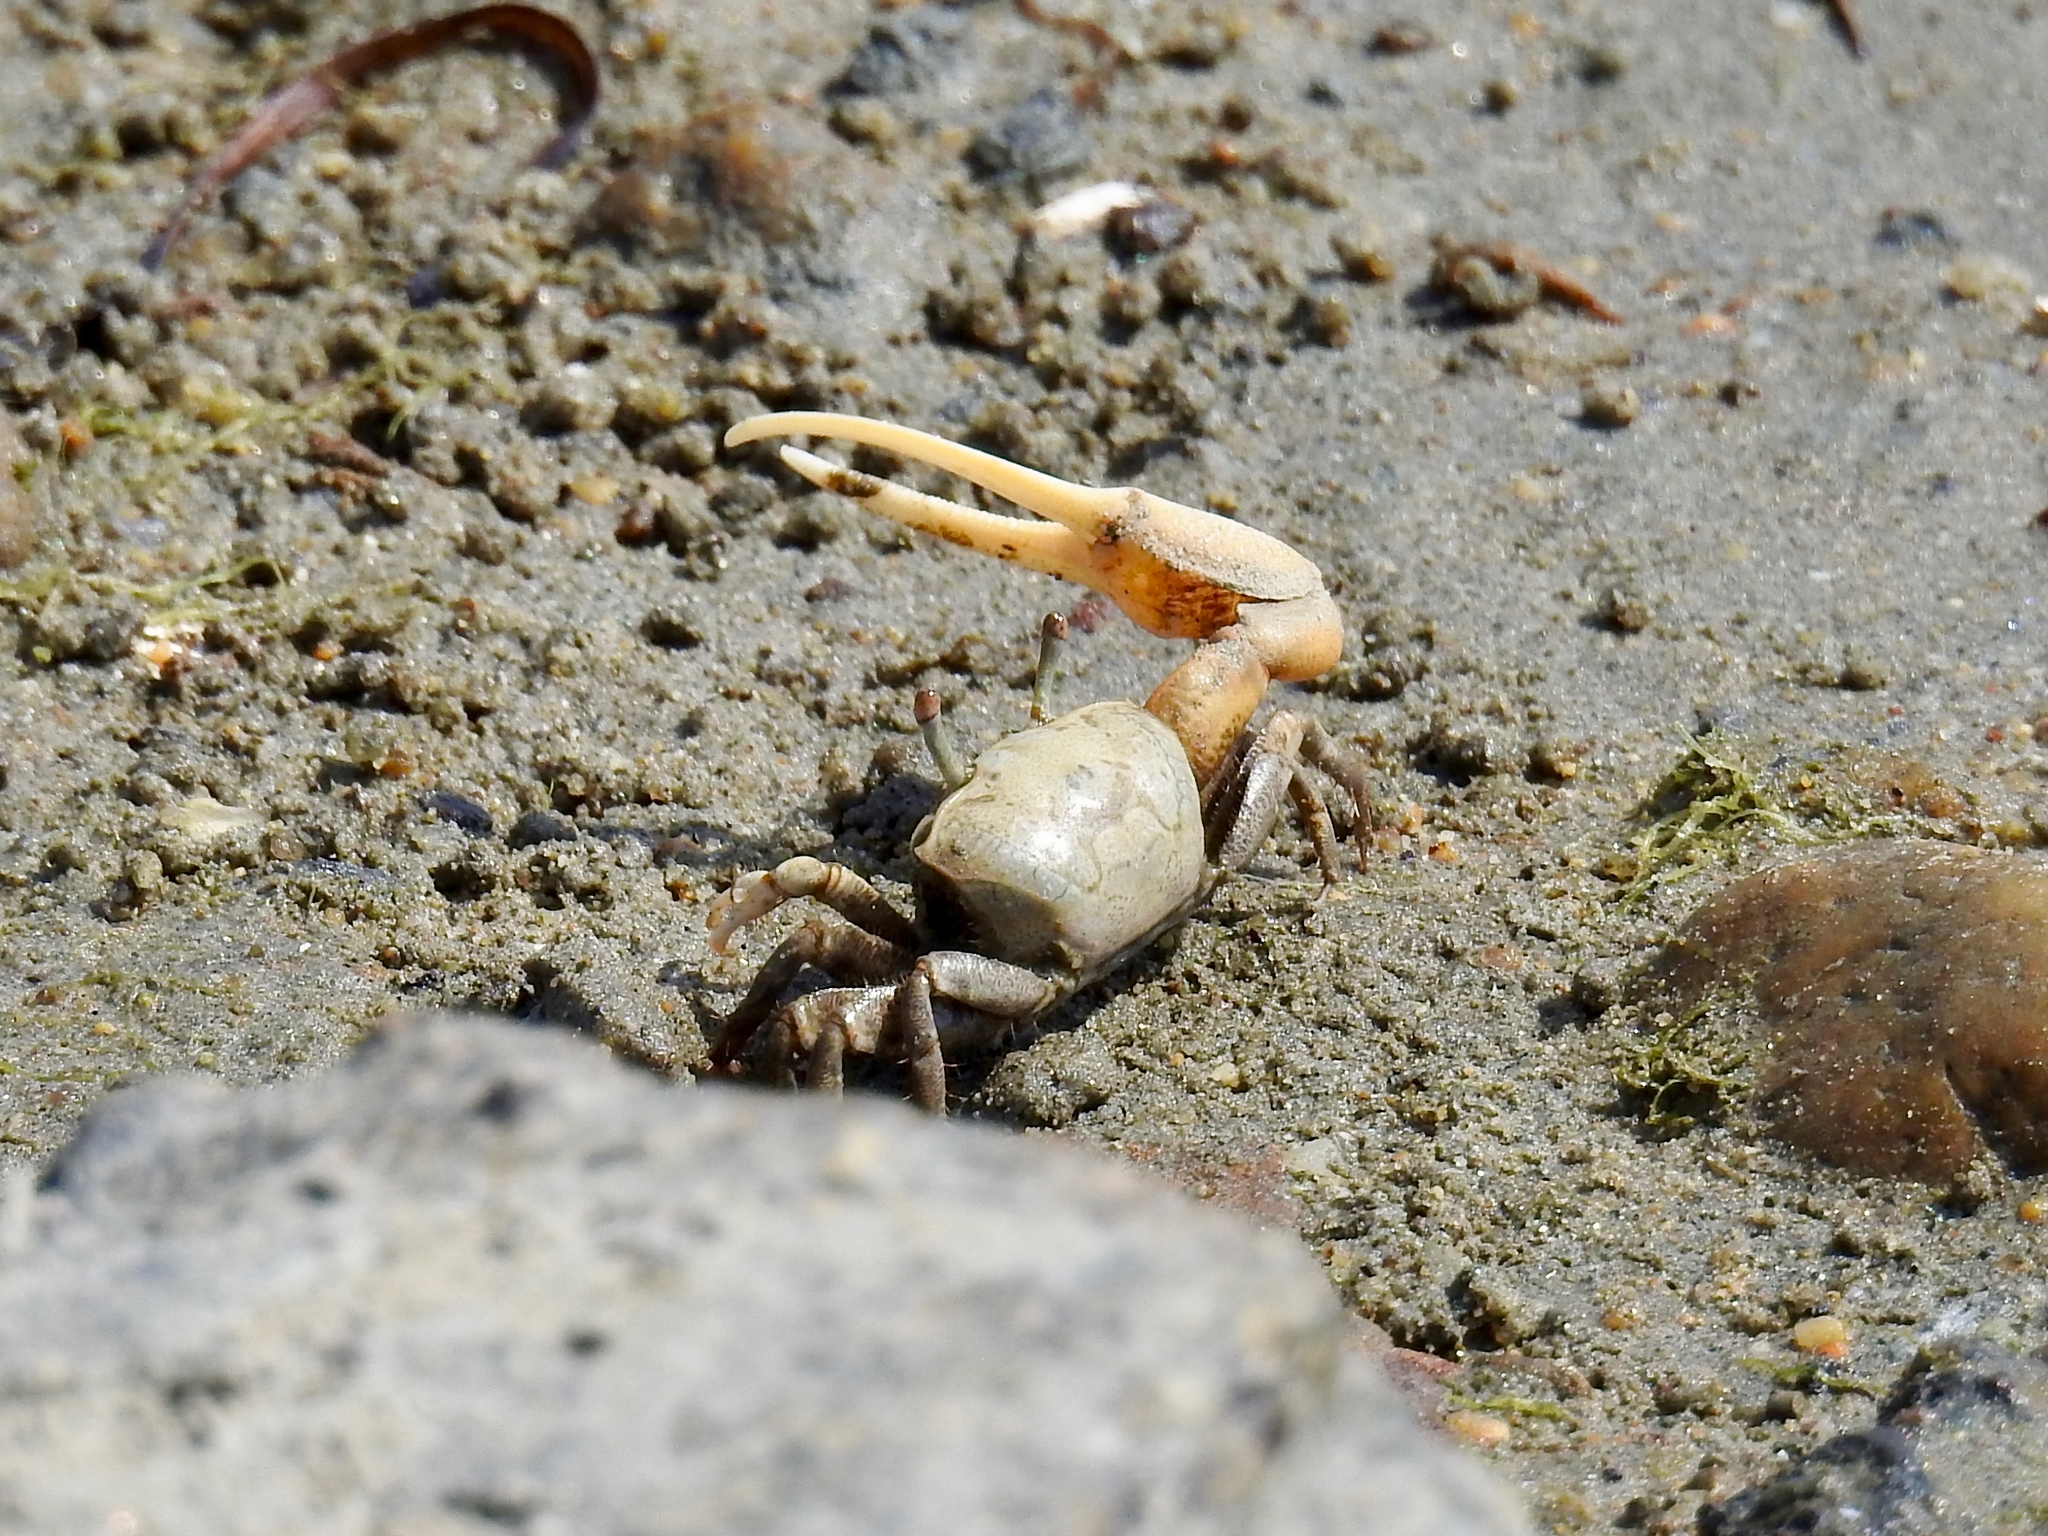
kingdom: Animalia
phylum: Arthropoda
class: Malacostraca
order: Decapoda
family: Ocypodidae
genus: Leptuca
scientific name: Leptuca crenulata
